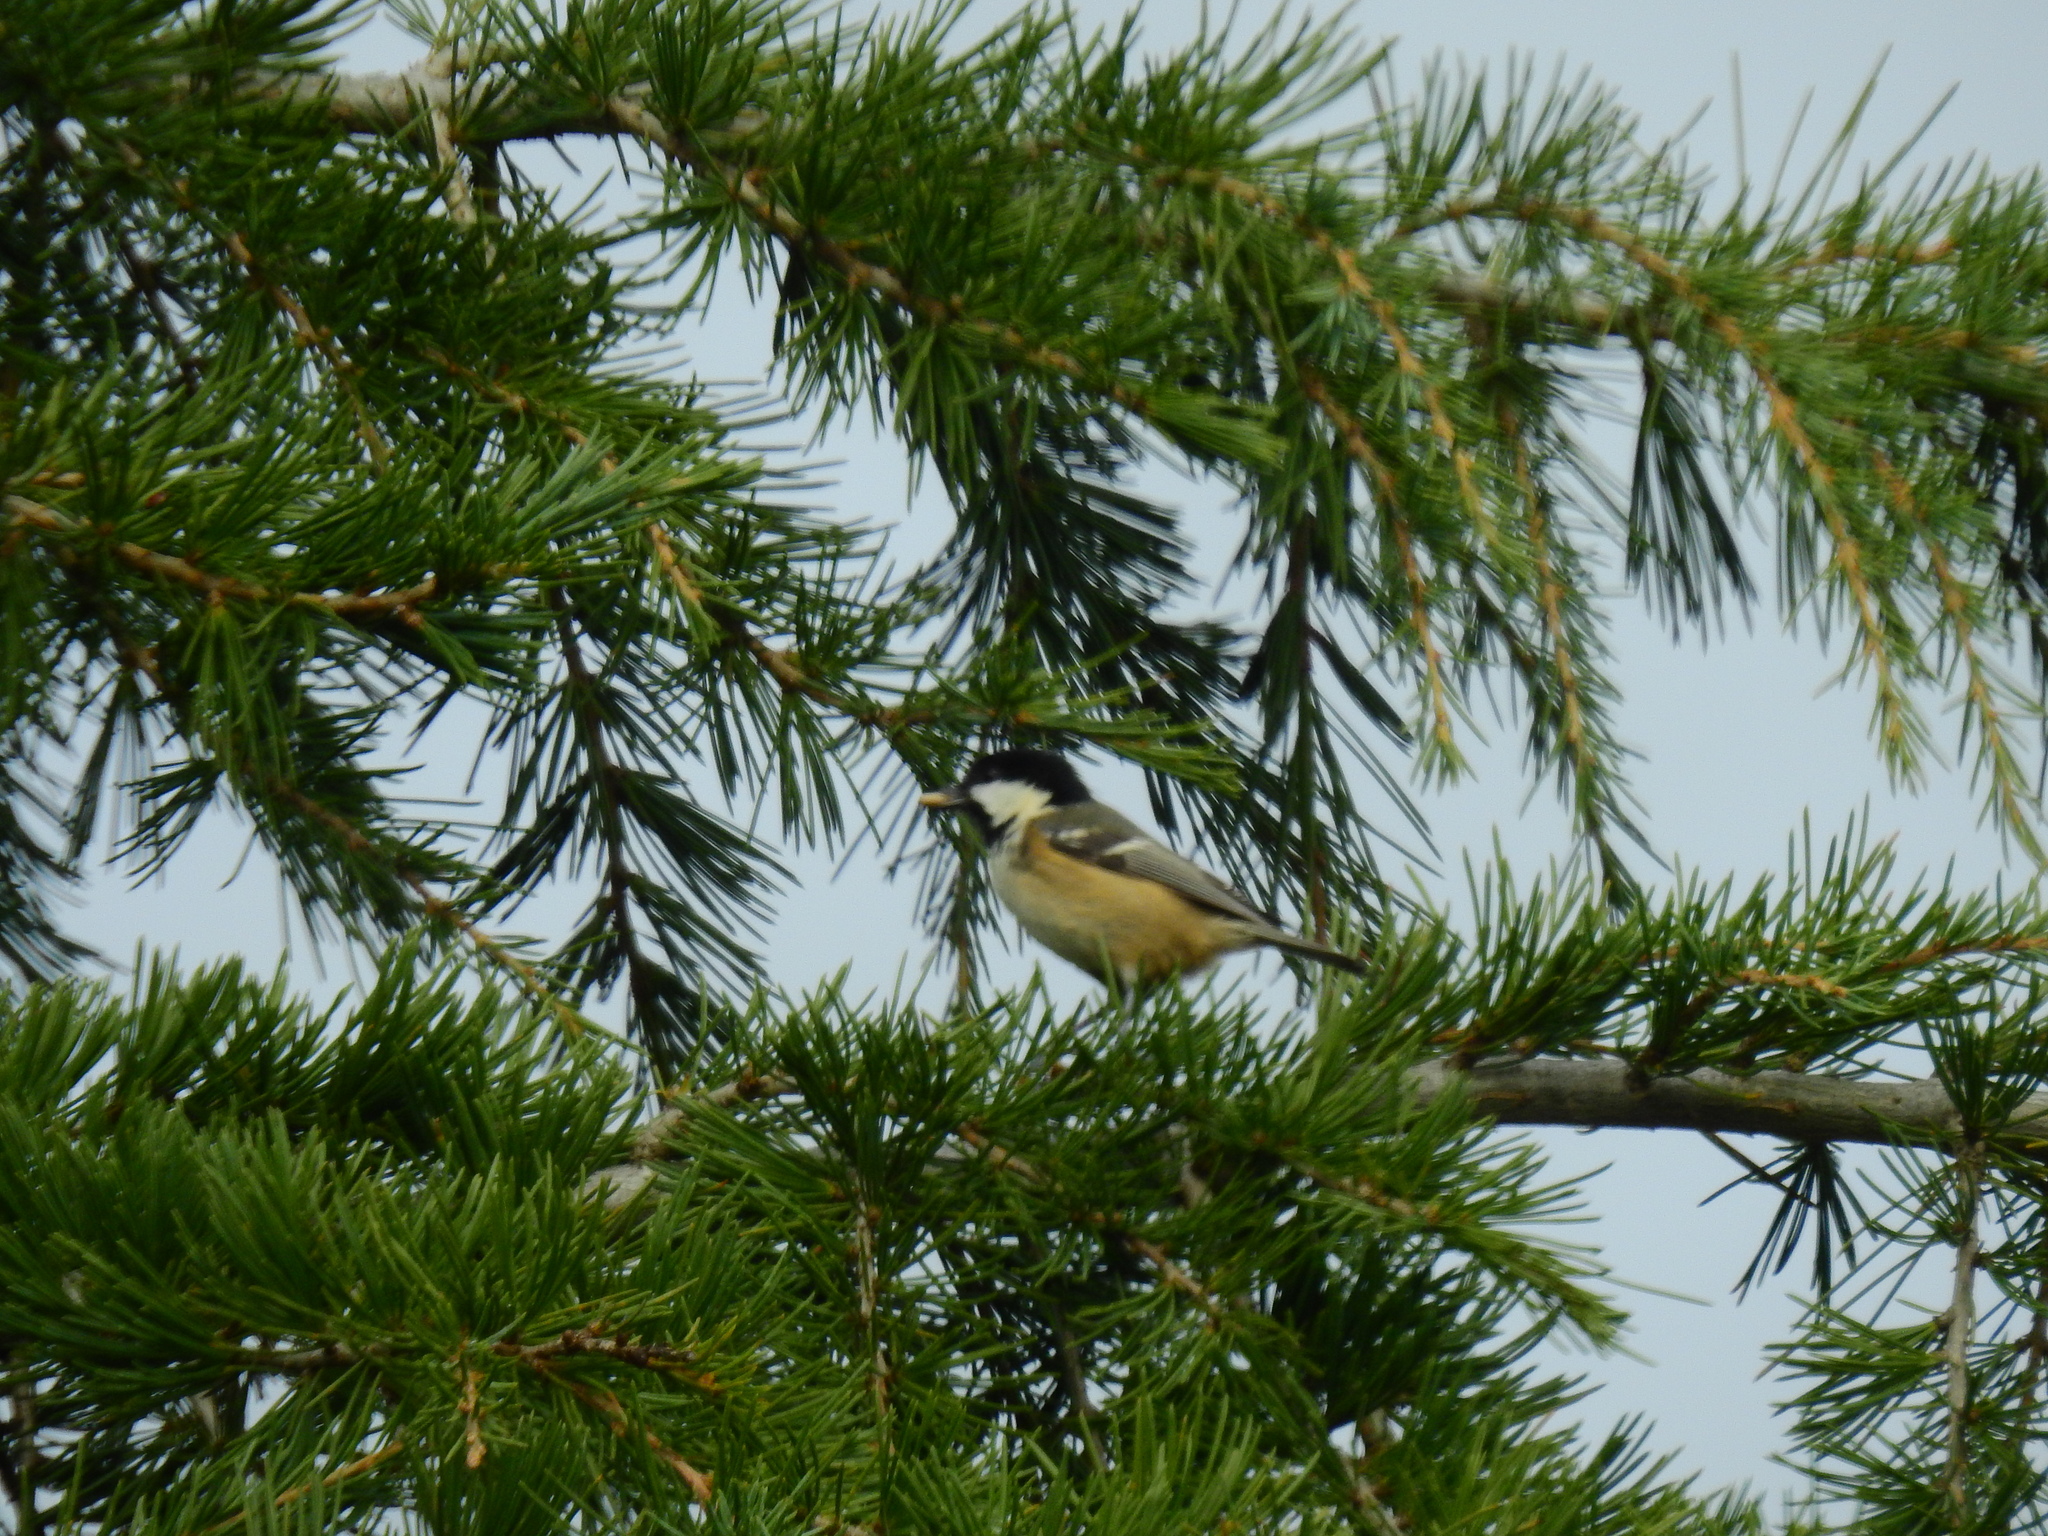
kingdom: Animalia
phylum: Chordata
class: Aves
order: Passeriformes
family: Paridae
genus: Periparus
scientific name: Periparus ater
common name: Coal tit
